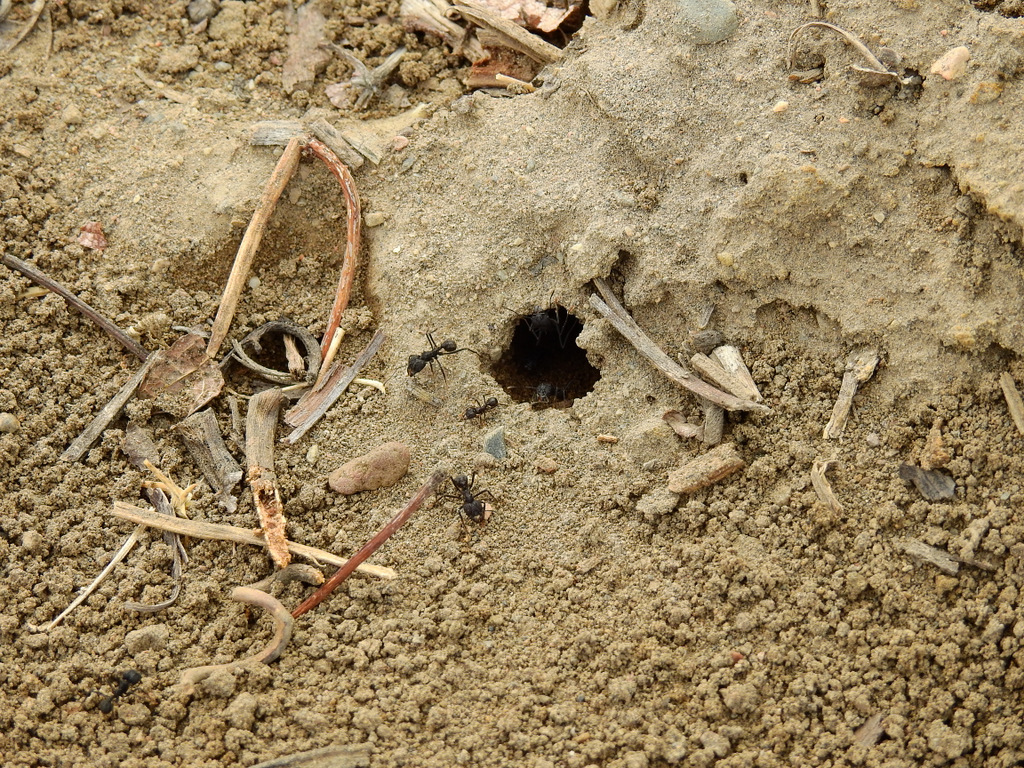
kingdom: Animalia
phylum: Arthropoda
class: Insecta
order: Hymenoptera
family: Formicidae
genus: Acromyrmex
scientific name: Acromyrmex lobicornis
